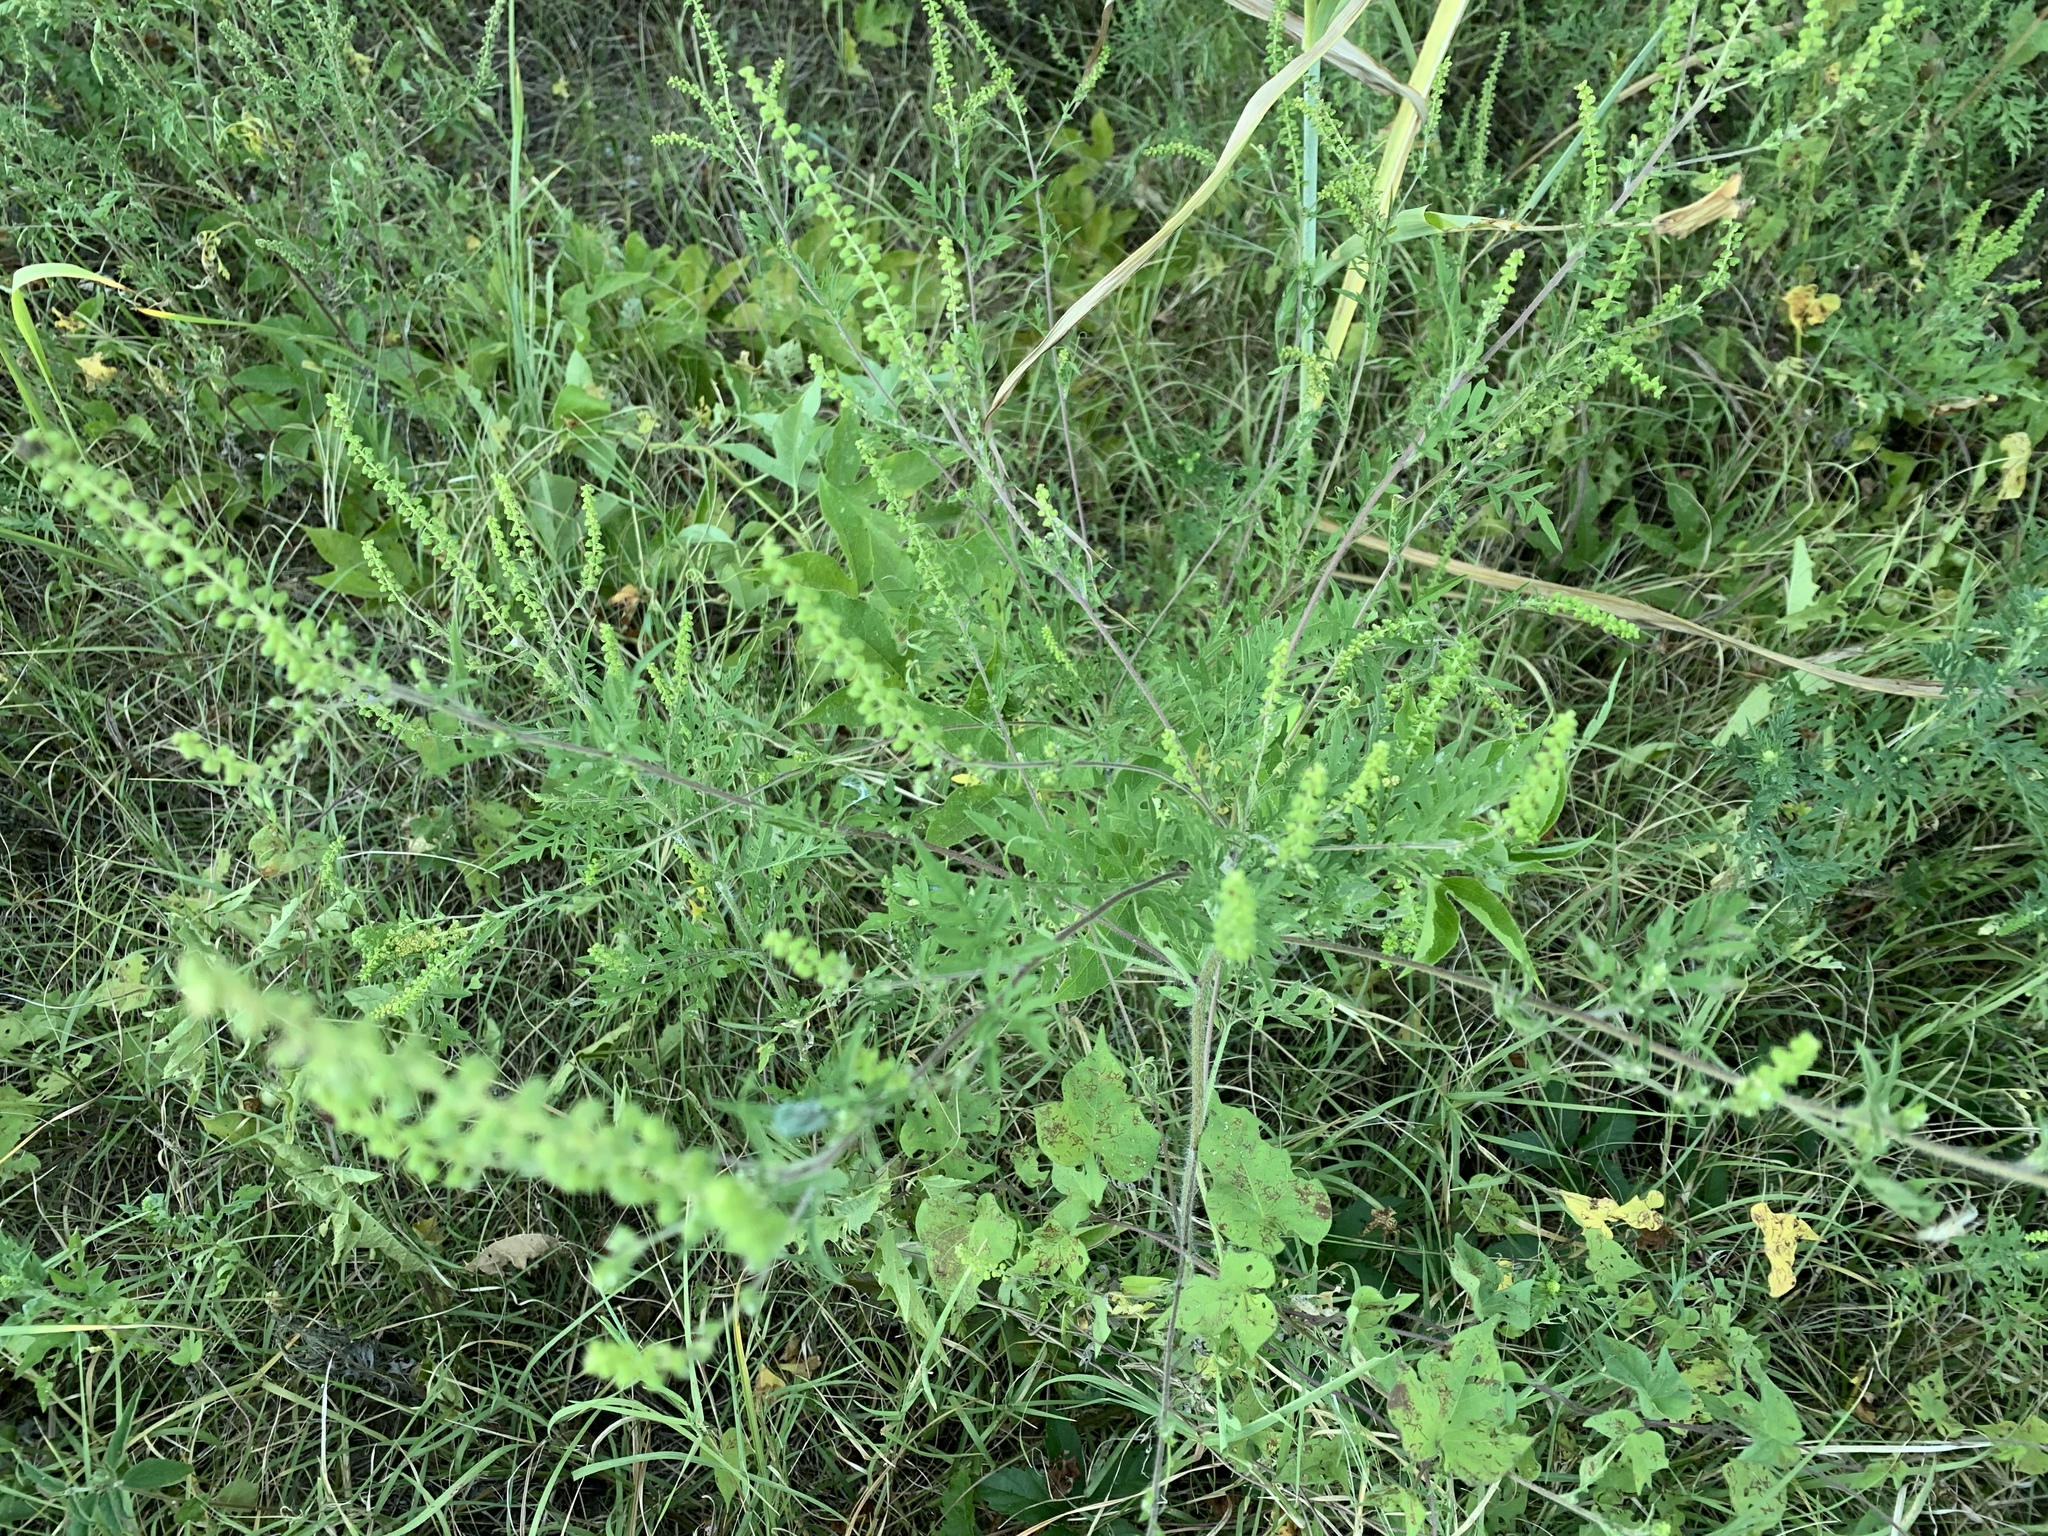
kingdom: Plantae
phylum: Tracheophyta
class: Magnoliopsida
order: Asterales
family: Asteraceae
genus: Ambrosia
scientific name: Ambrosia artemisiifolia
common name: Annual ragweed
